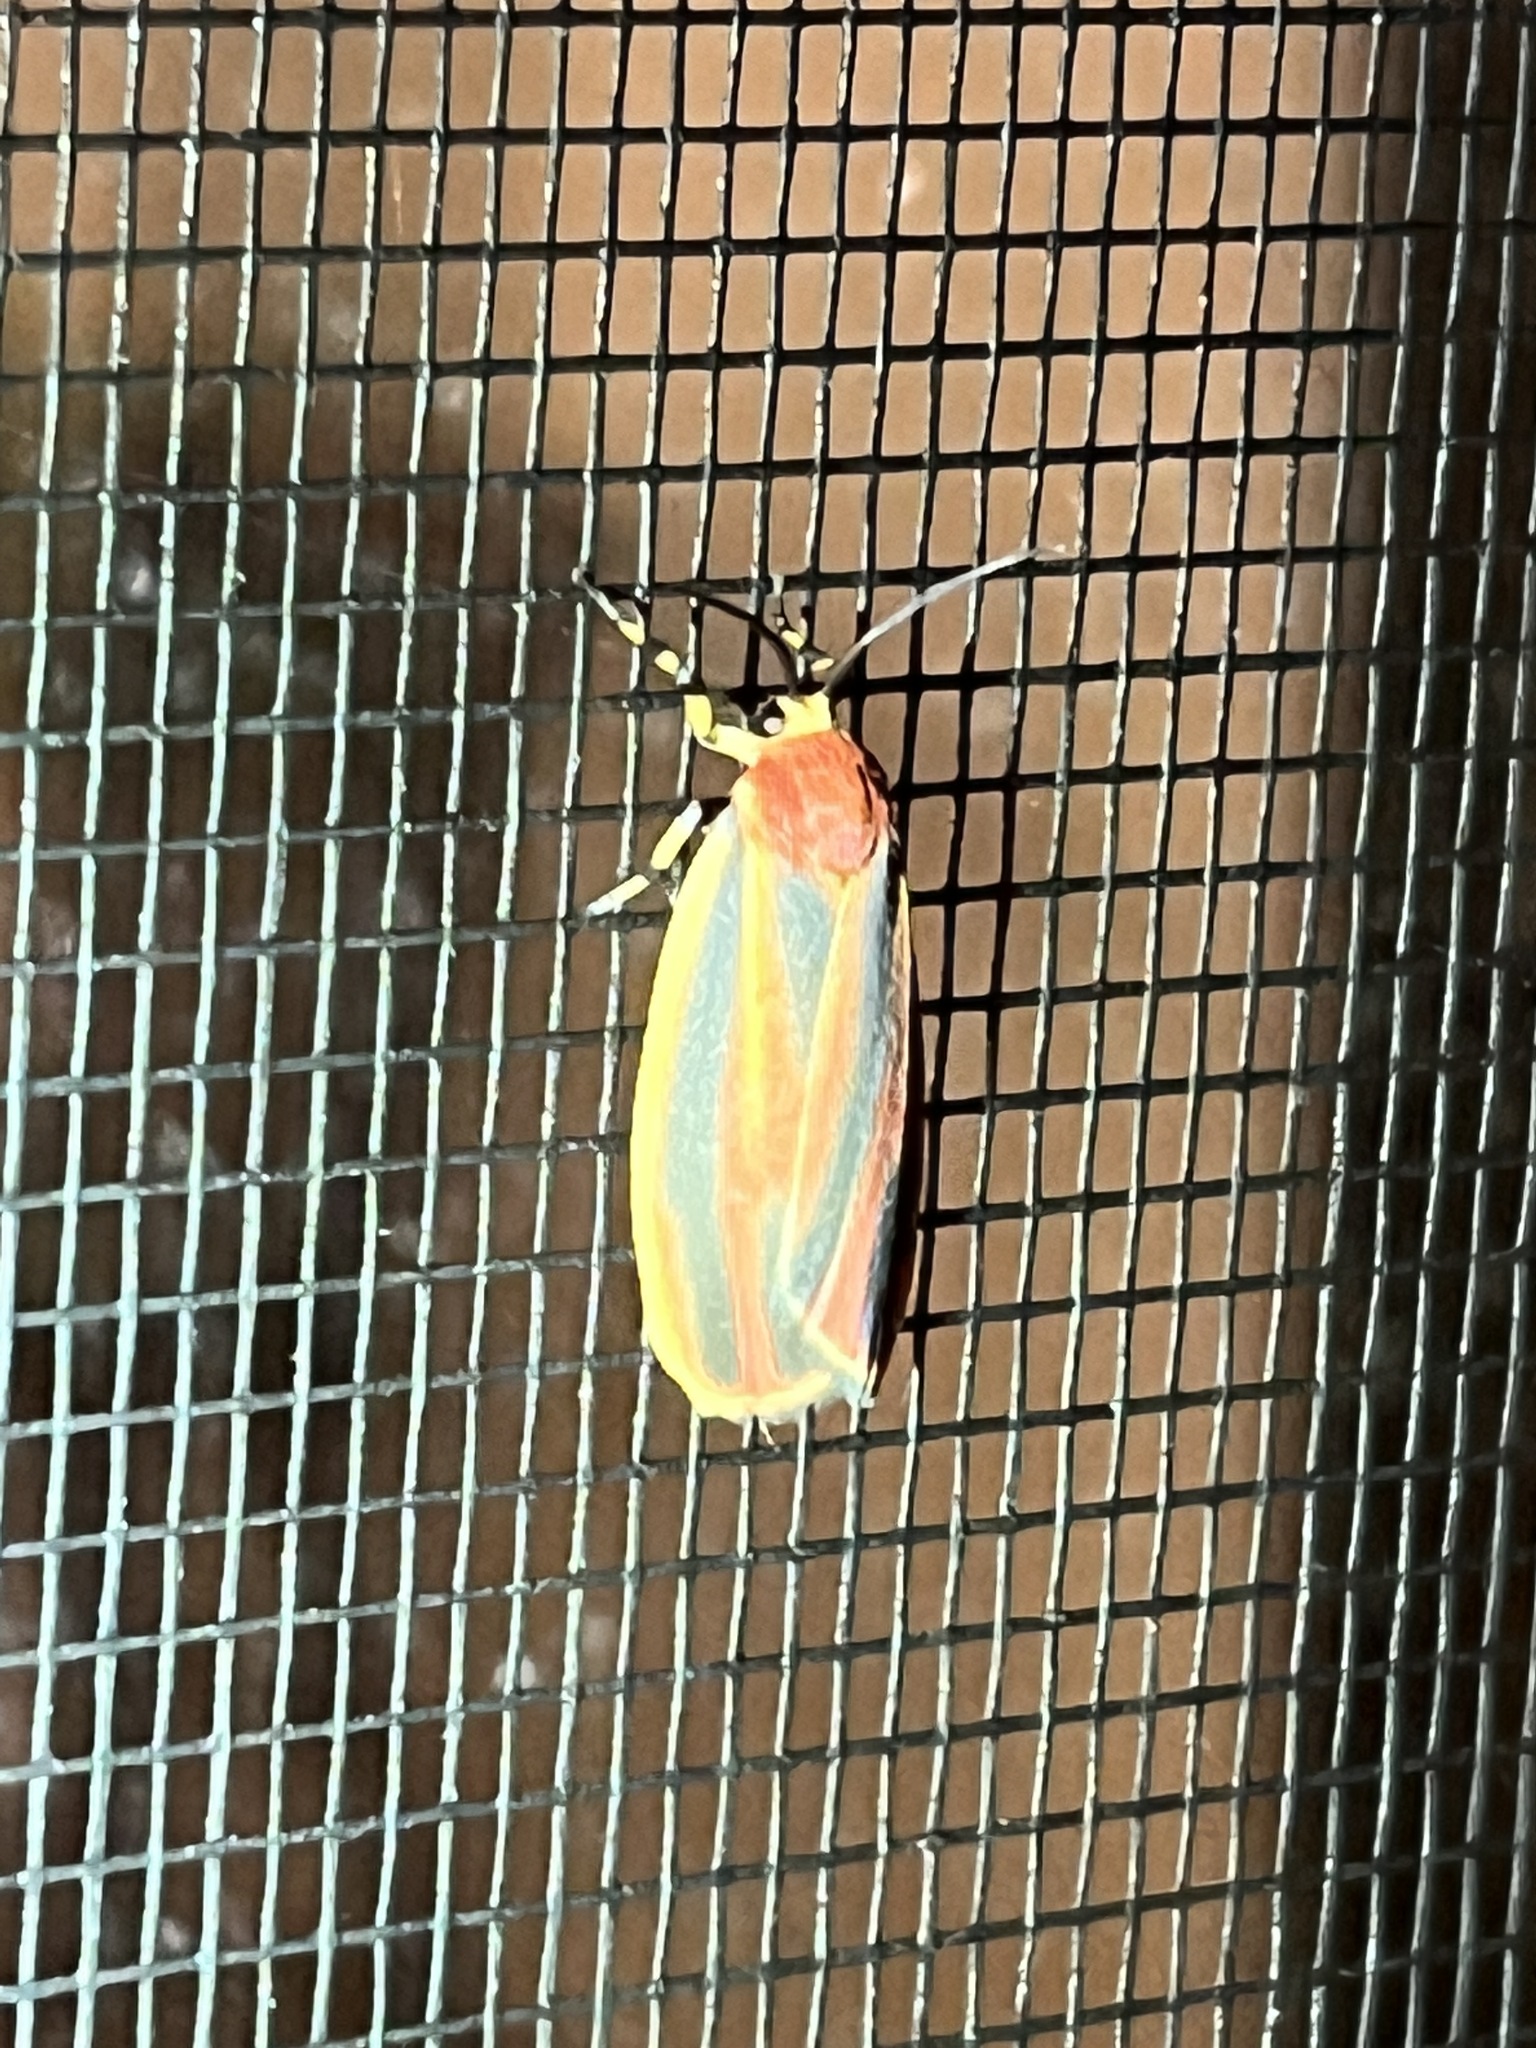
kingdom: Animalia
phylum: Arthropoda
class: Insecta
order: Lepidoptera
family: Erebidae
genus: Hypoprepia
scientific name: Hypoprepia fucosa
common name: Painted lichen moth
